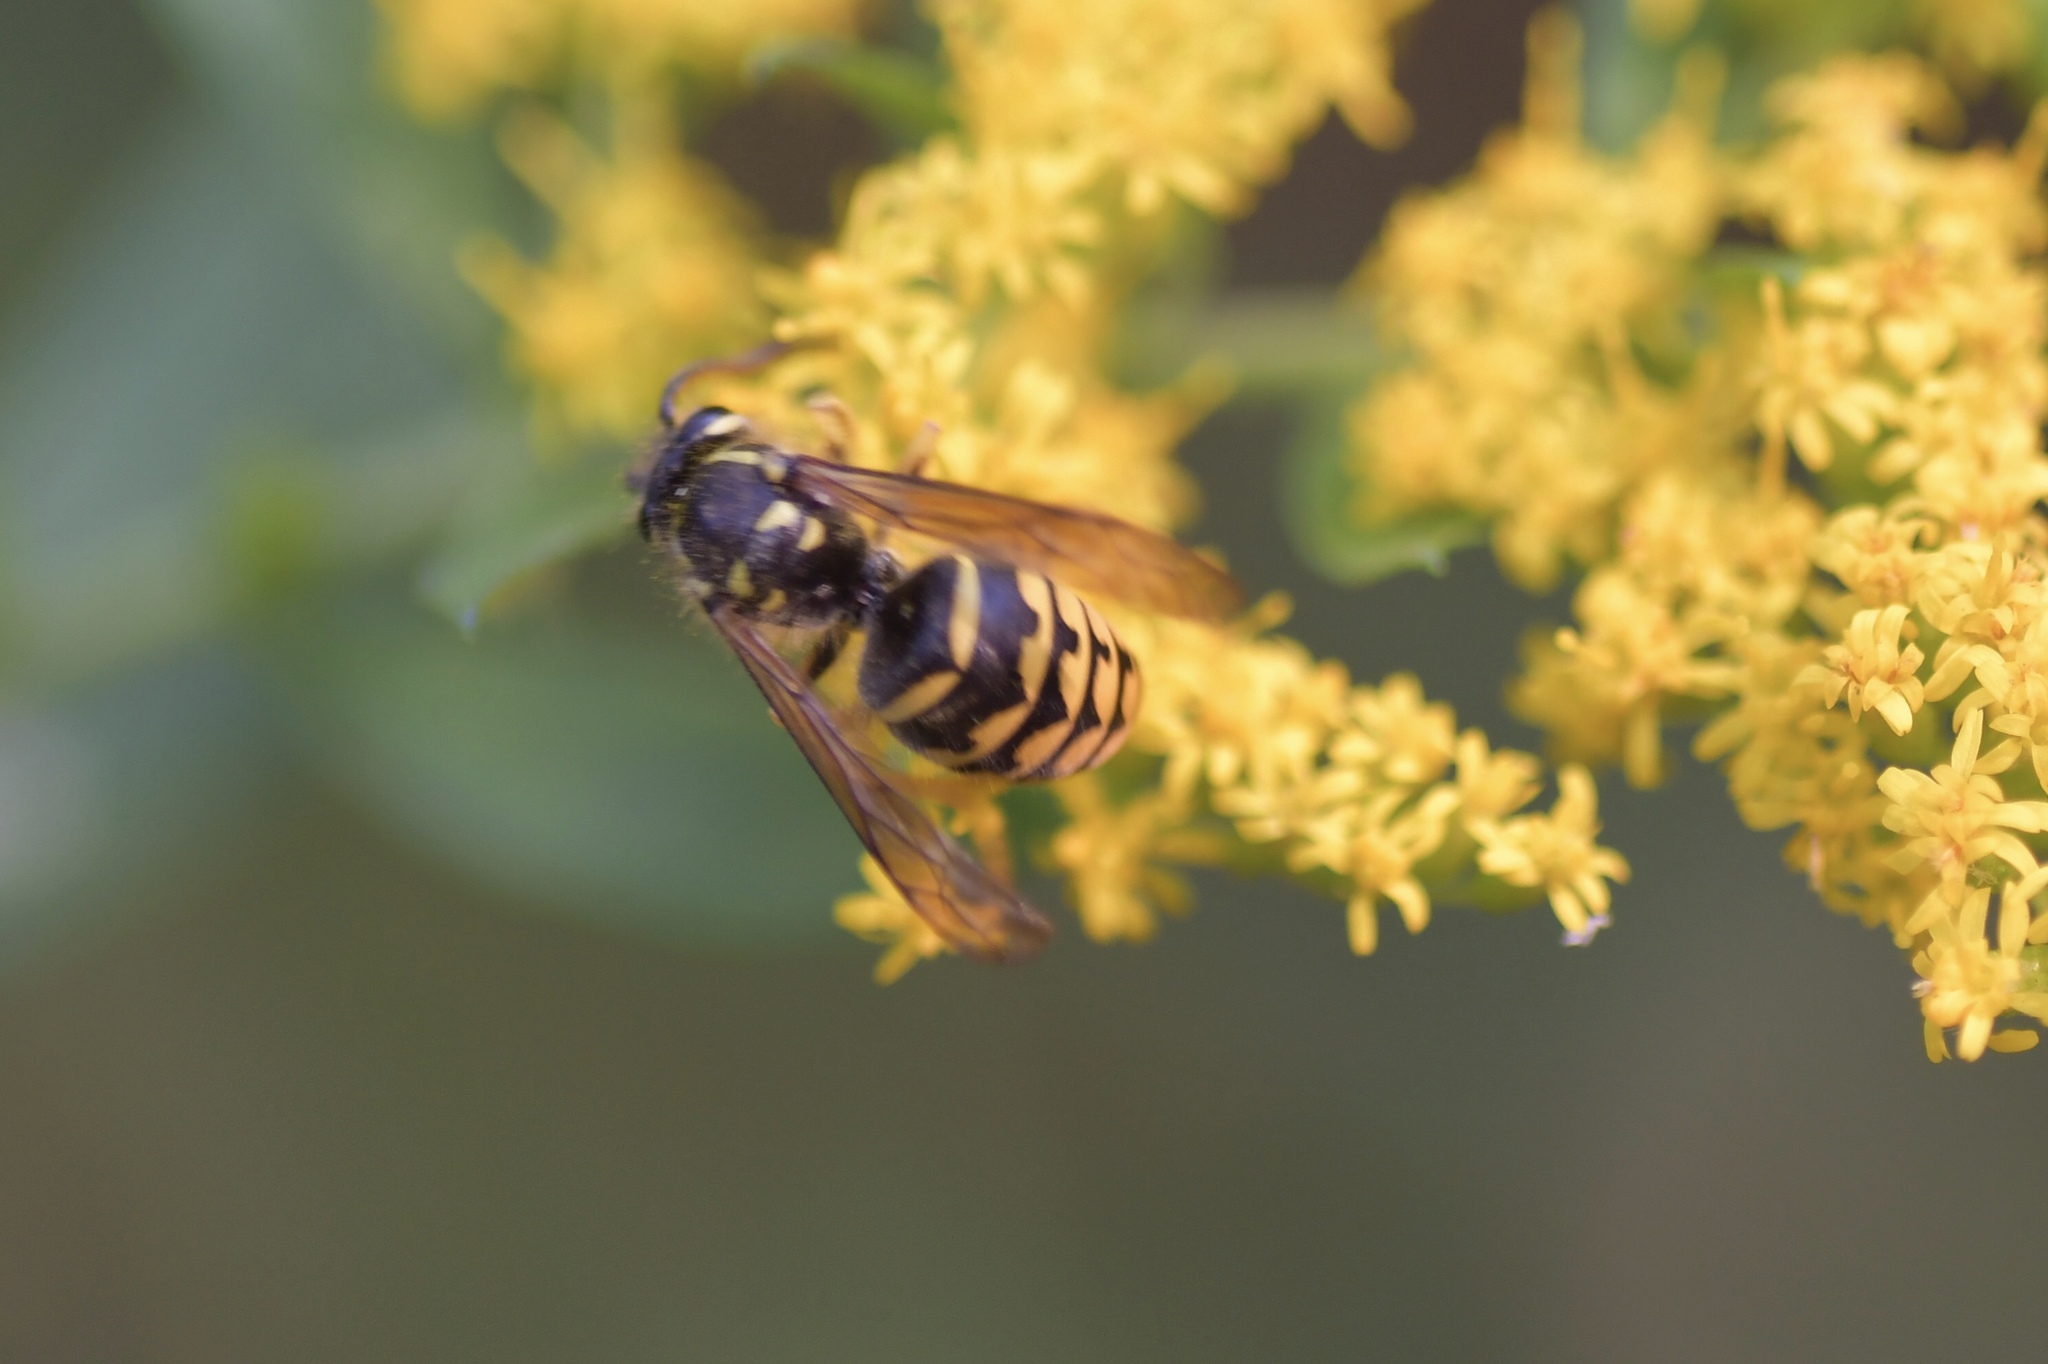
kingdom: Animalia
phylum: Arthropoda
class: Insecta
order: Hymenoptera
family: Vespidae
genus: Dolichovespula
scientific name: Dolichovespula arenaria
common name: Aerial yellowjacket
